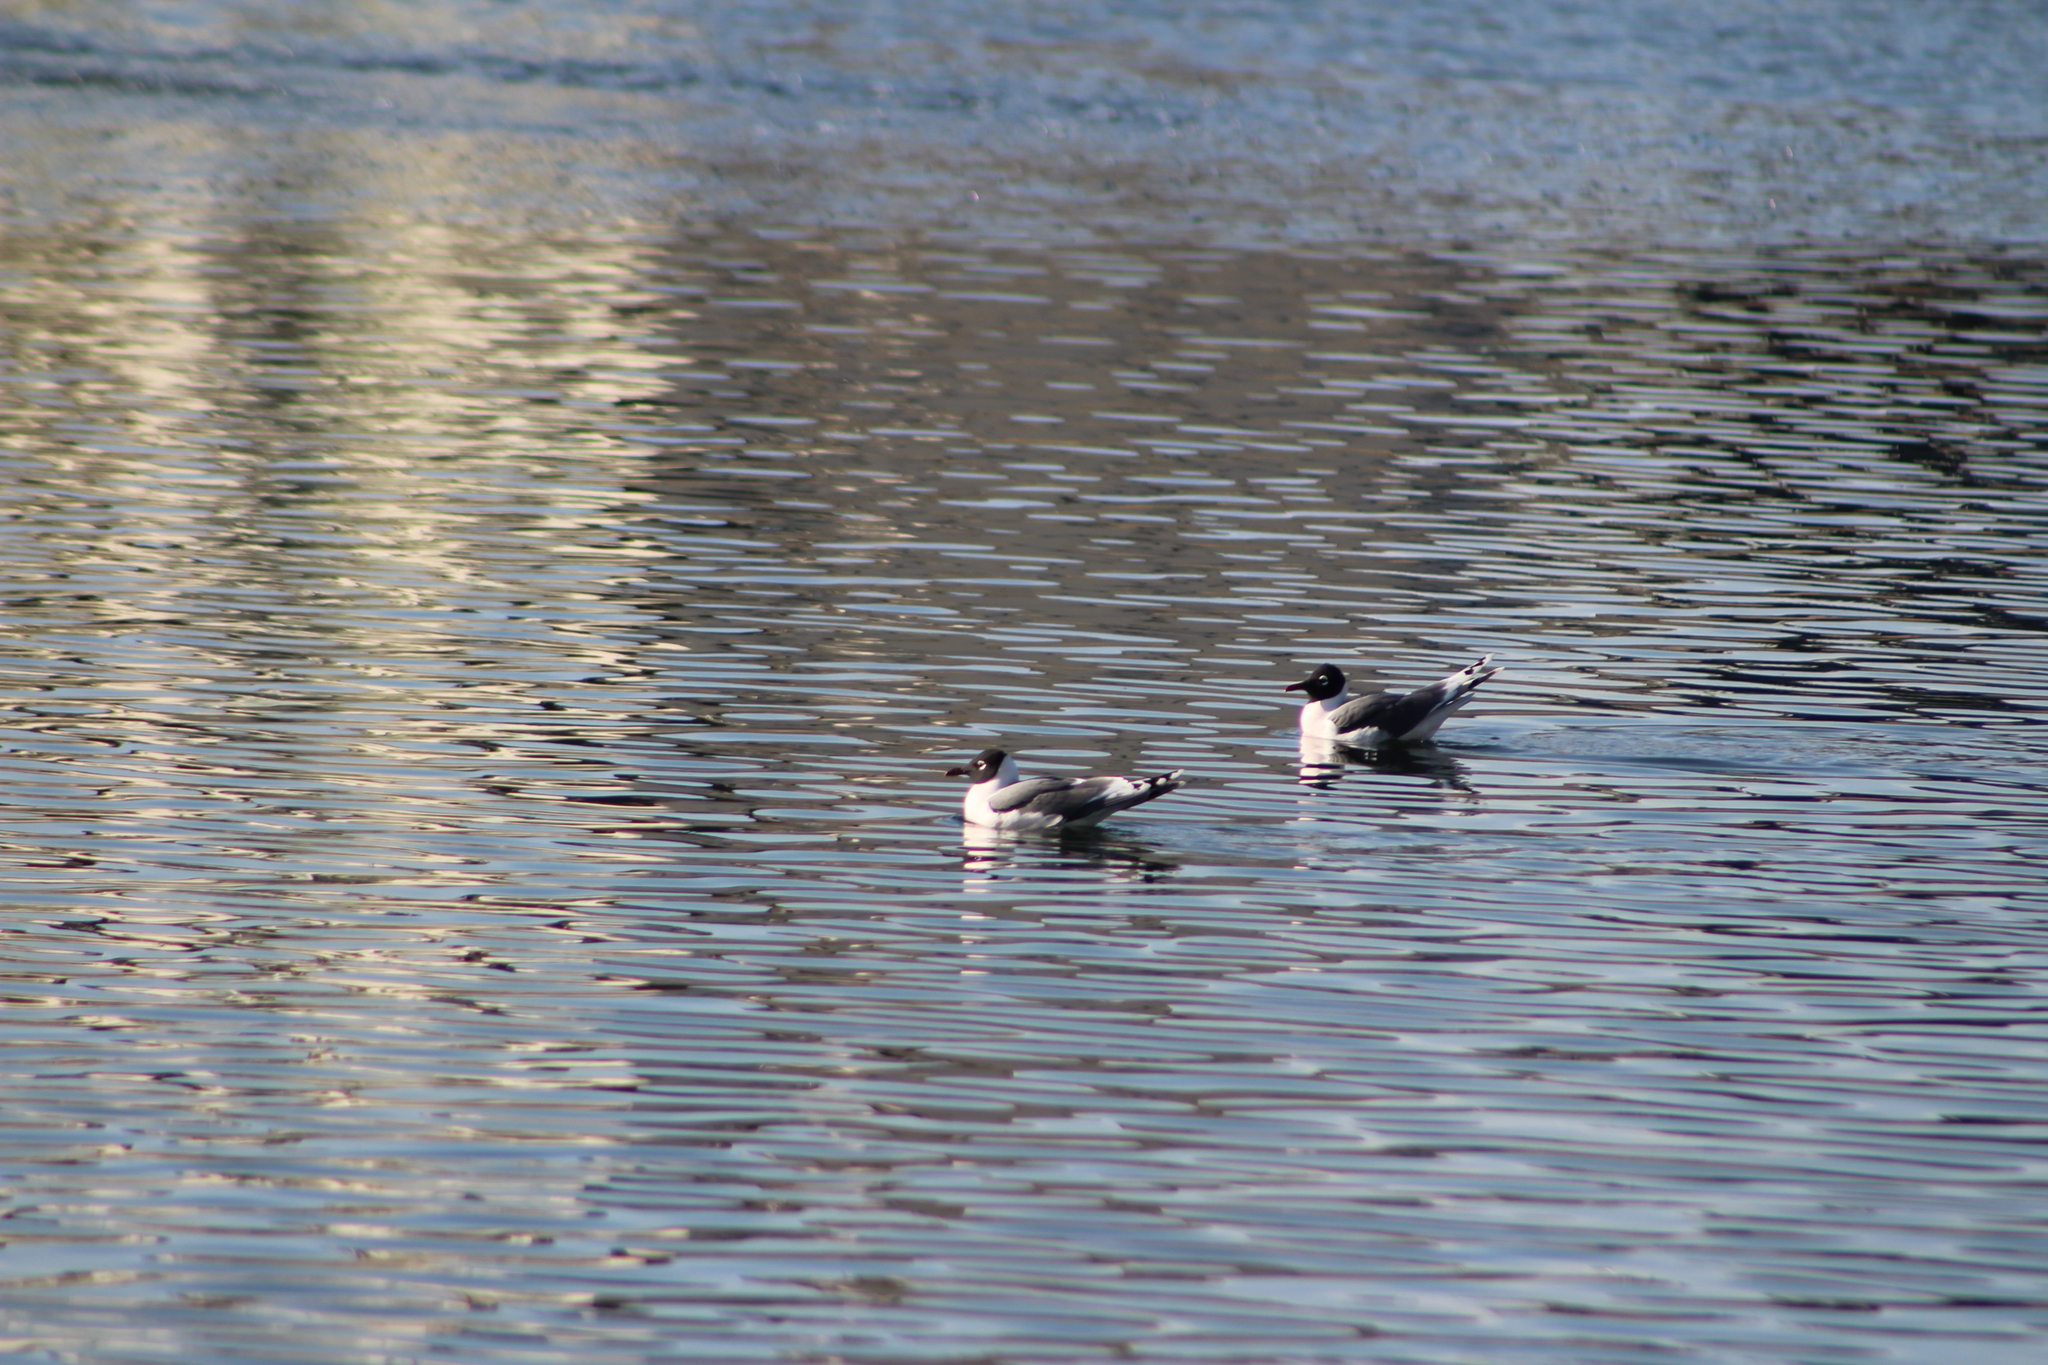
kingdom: Animalia
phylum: Chordata
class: Aves
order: Charadriiformes
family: Laridae
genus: Leucophaeus
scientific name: Leucophaeus pipixcan
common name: Franklin's gull
